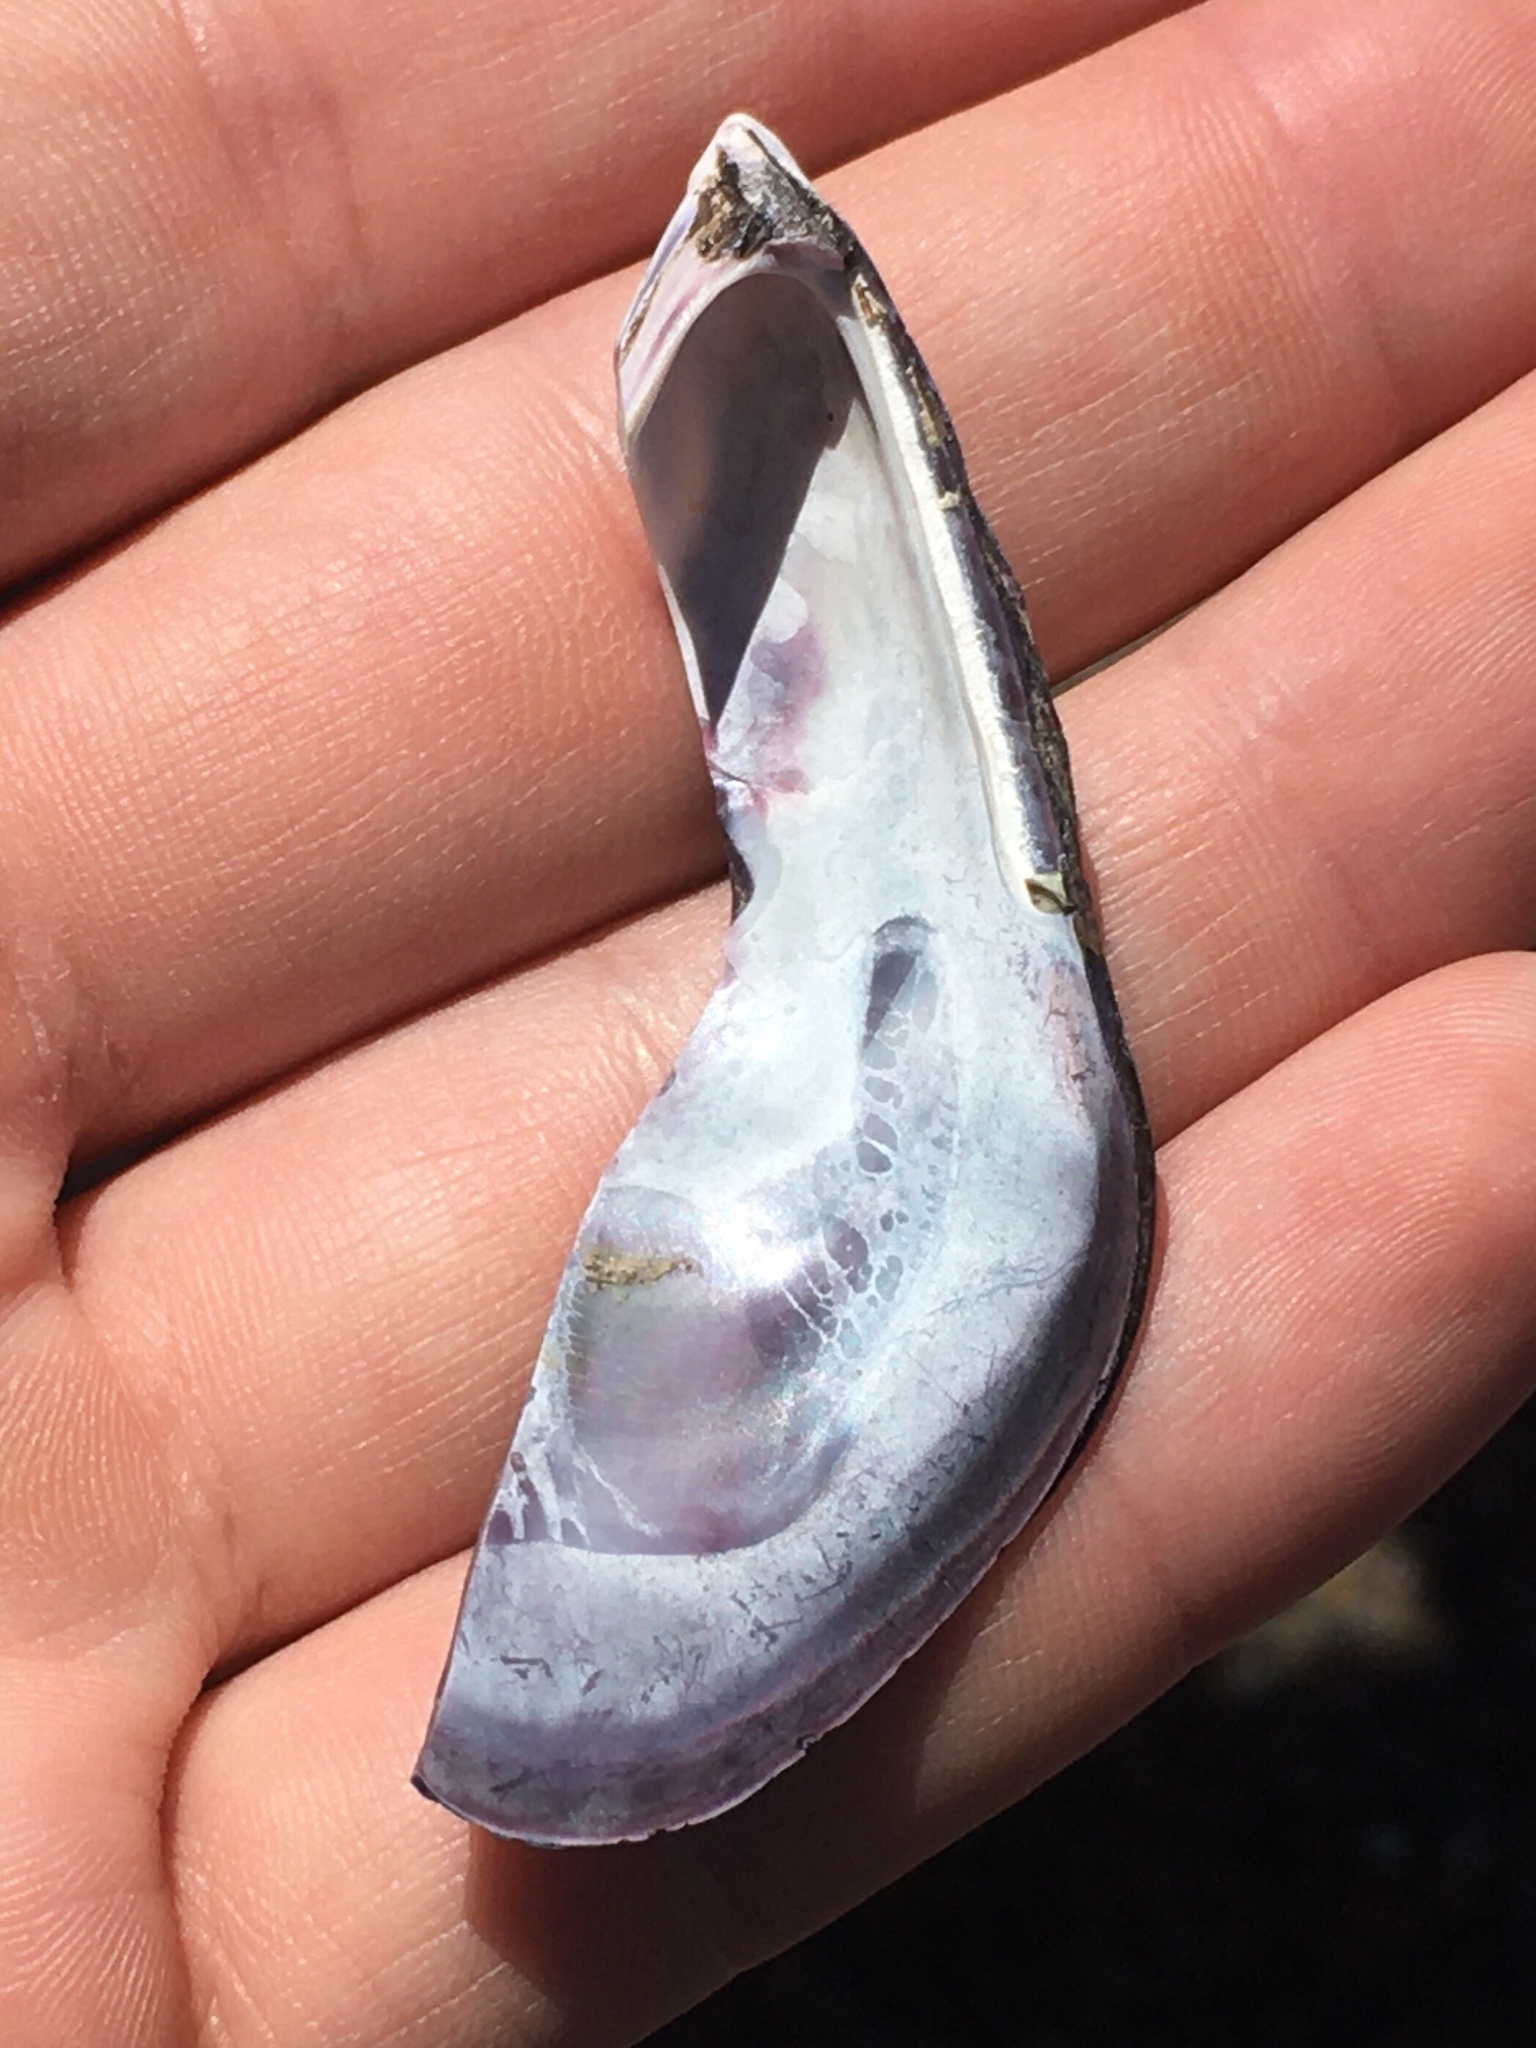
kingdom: Animalia
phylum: Mollusca
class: Bivalvia
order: Mytilida
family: Mytilidae
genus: Aulacomya
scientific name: Aulacomya atra
